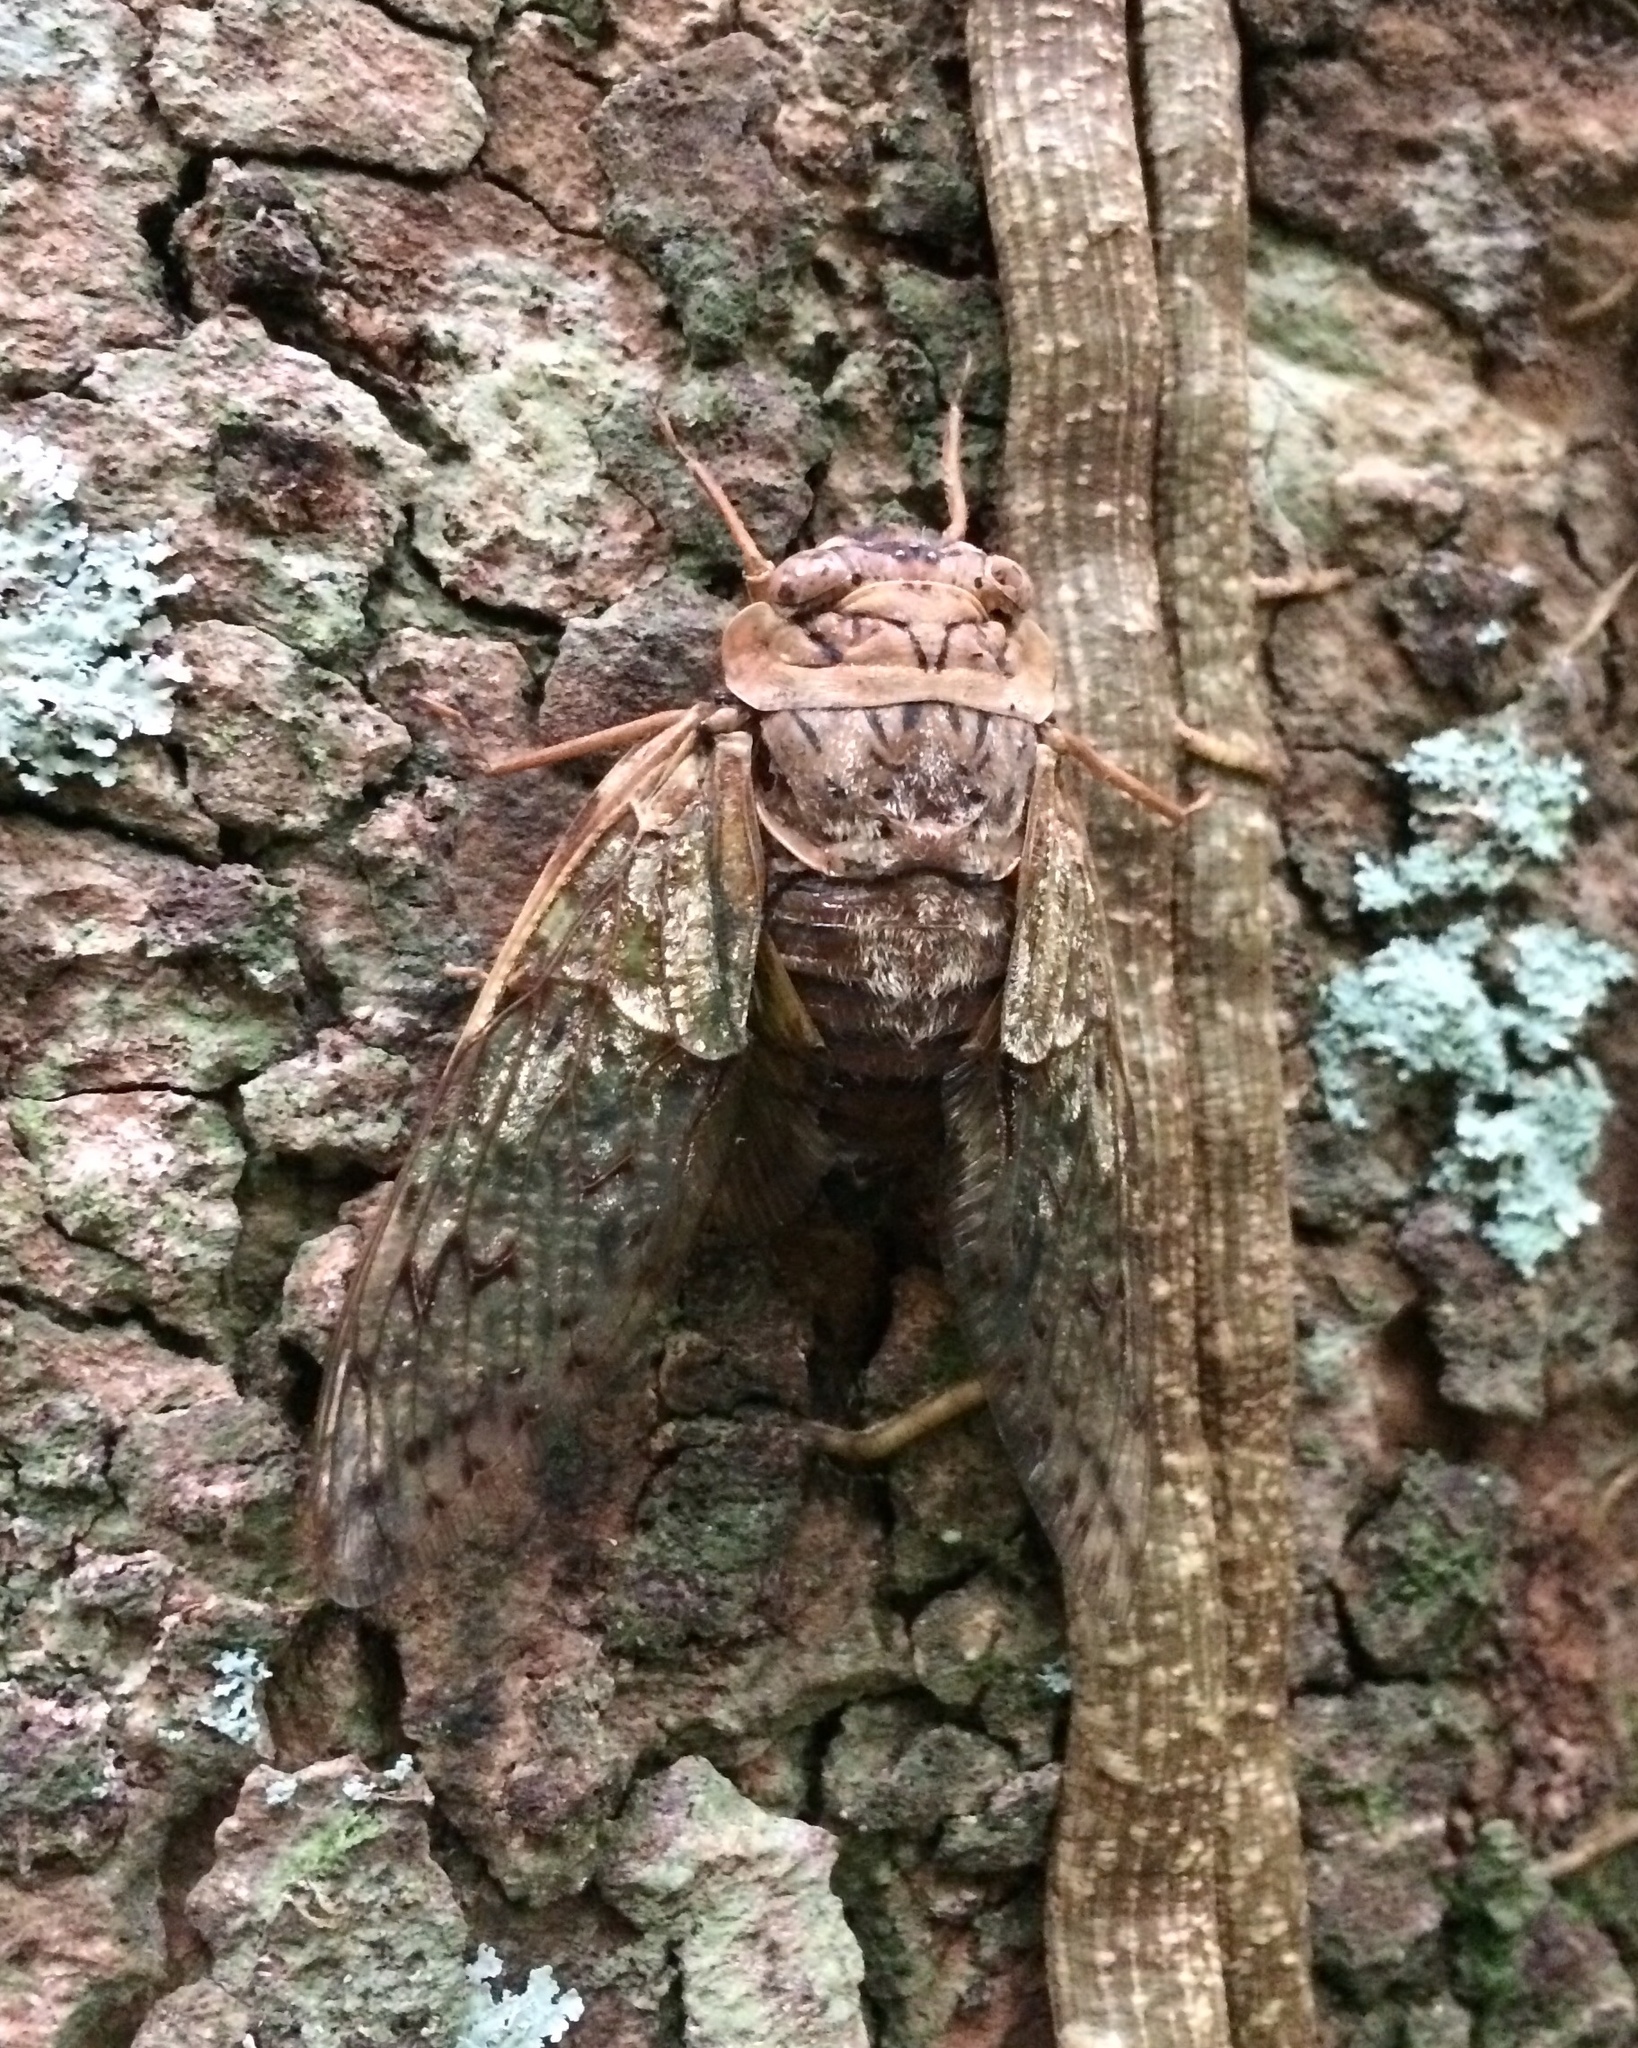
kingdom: Animalia
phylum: Arthropoda
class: Insecta
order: Hemiptera
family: Cicadidae
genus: Dyticopycna
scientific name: Dyticopycna semiclara
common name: Whining forest cicada
